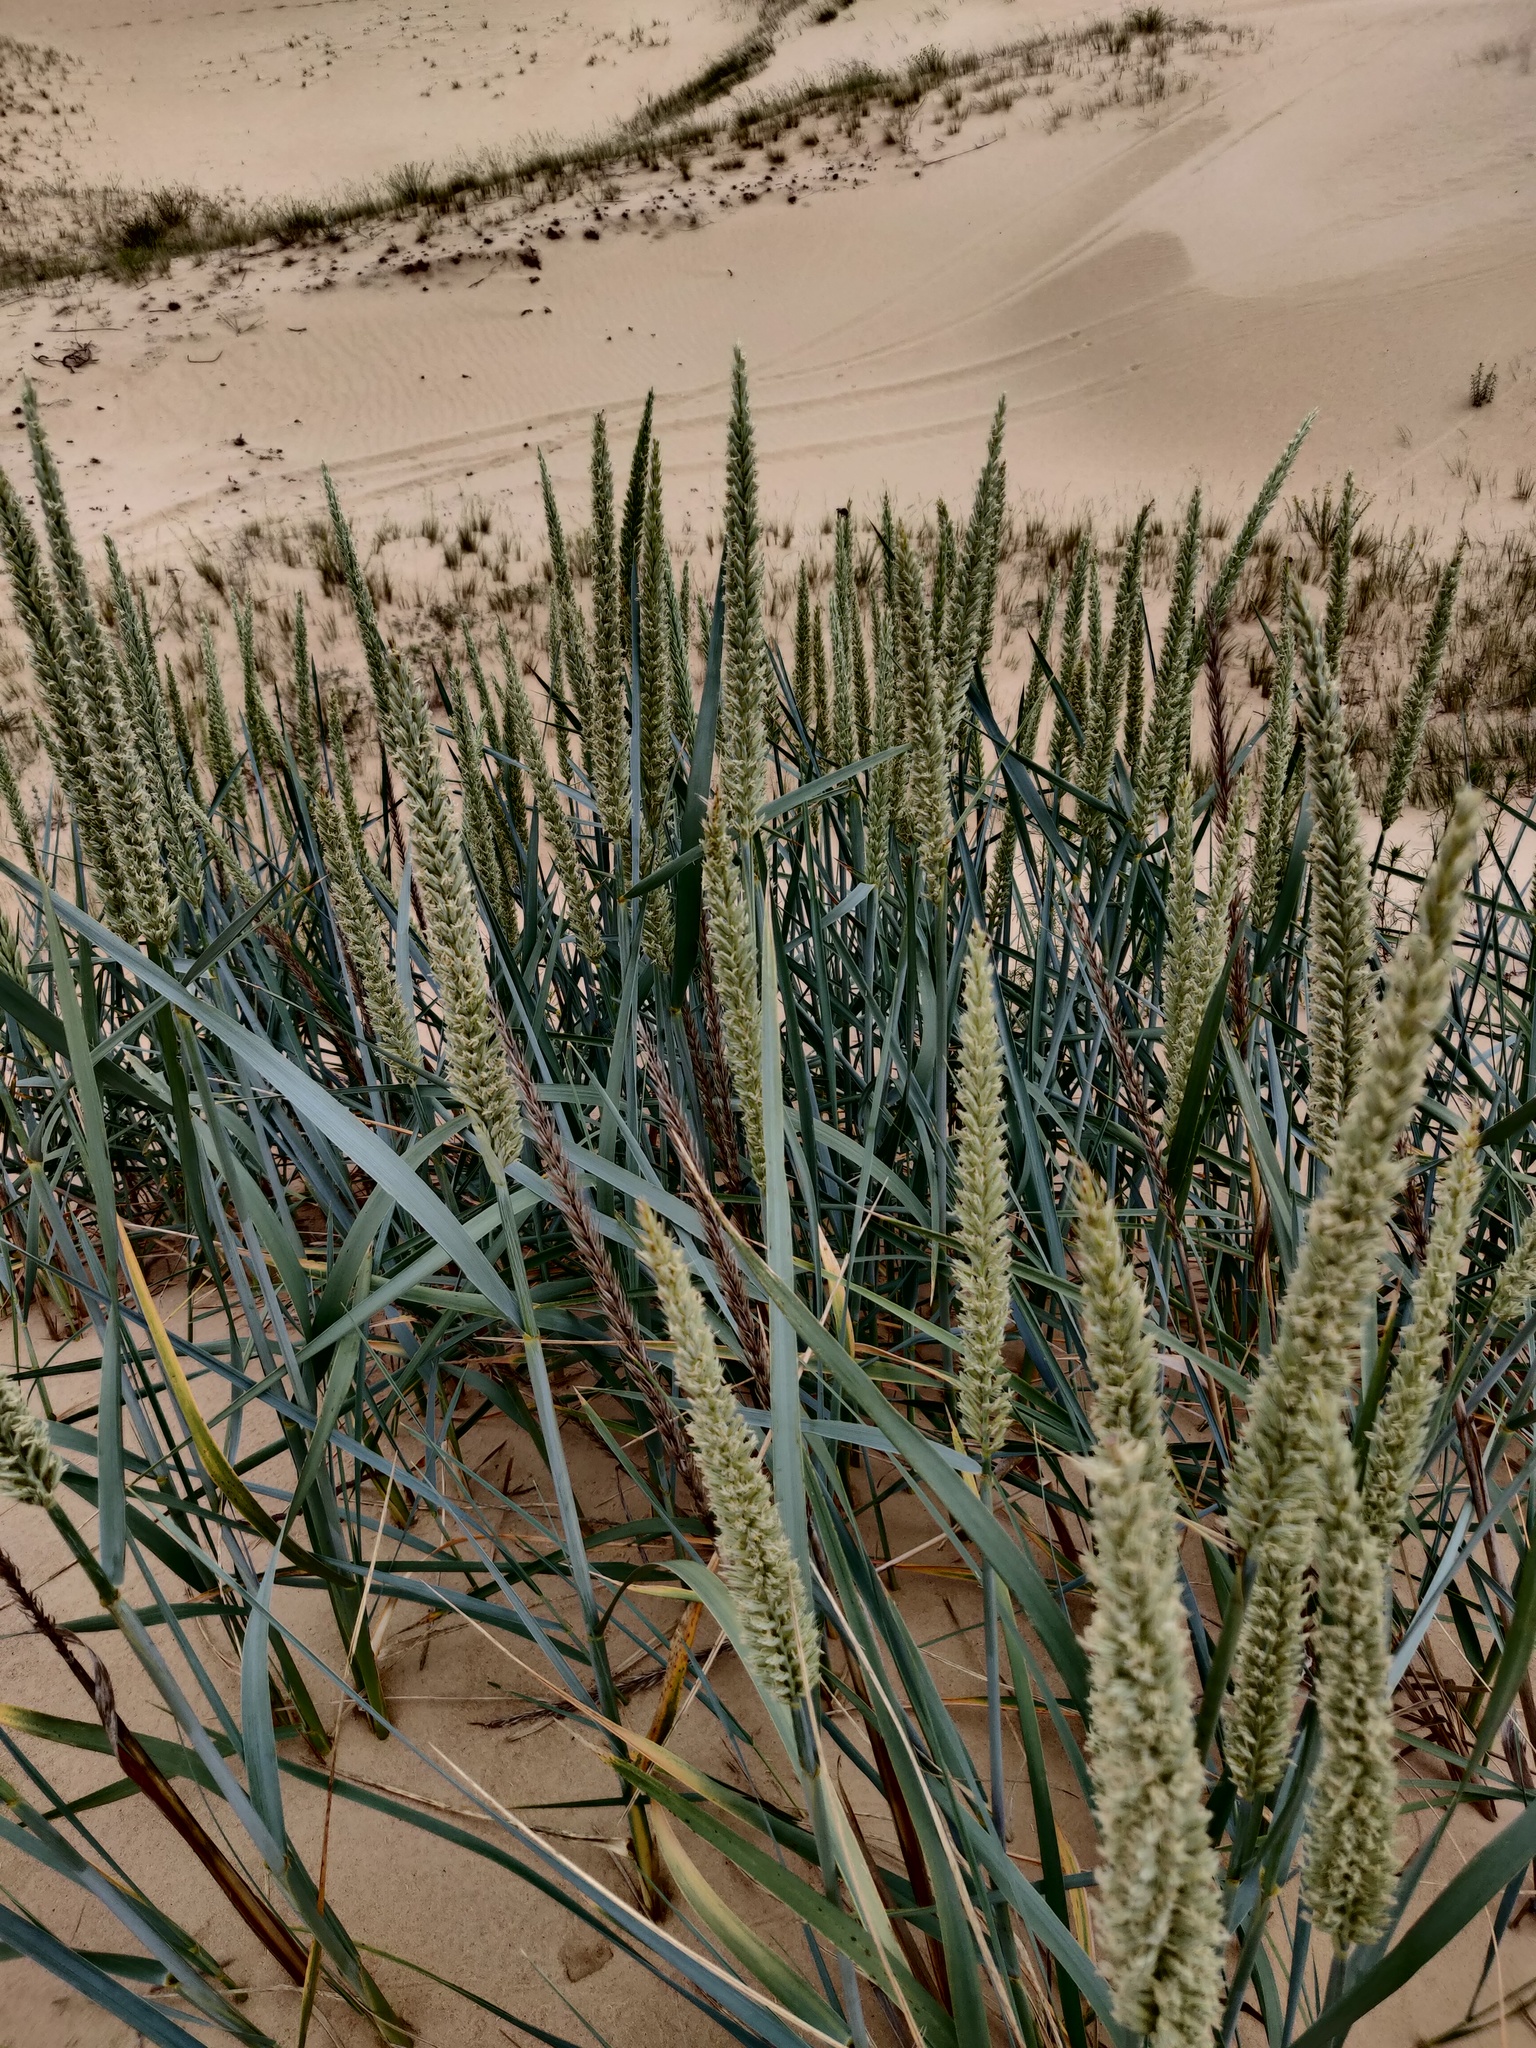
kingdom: Plantae
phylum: Tracheophyta
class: Liliopsida
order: Poales
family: Poaceae
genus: Leymus
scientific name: Leymus racemosus
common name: Mammoth wildrye
